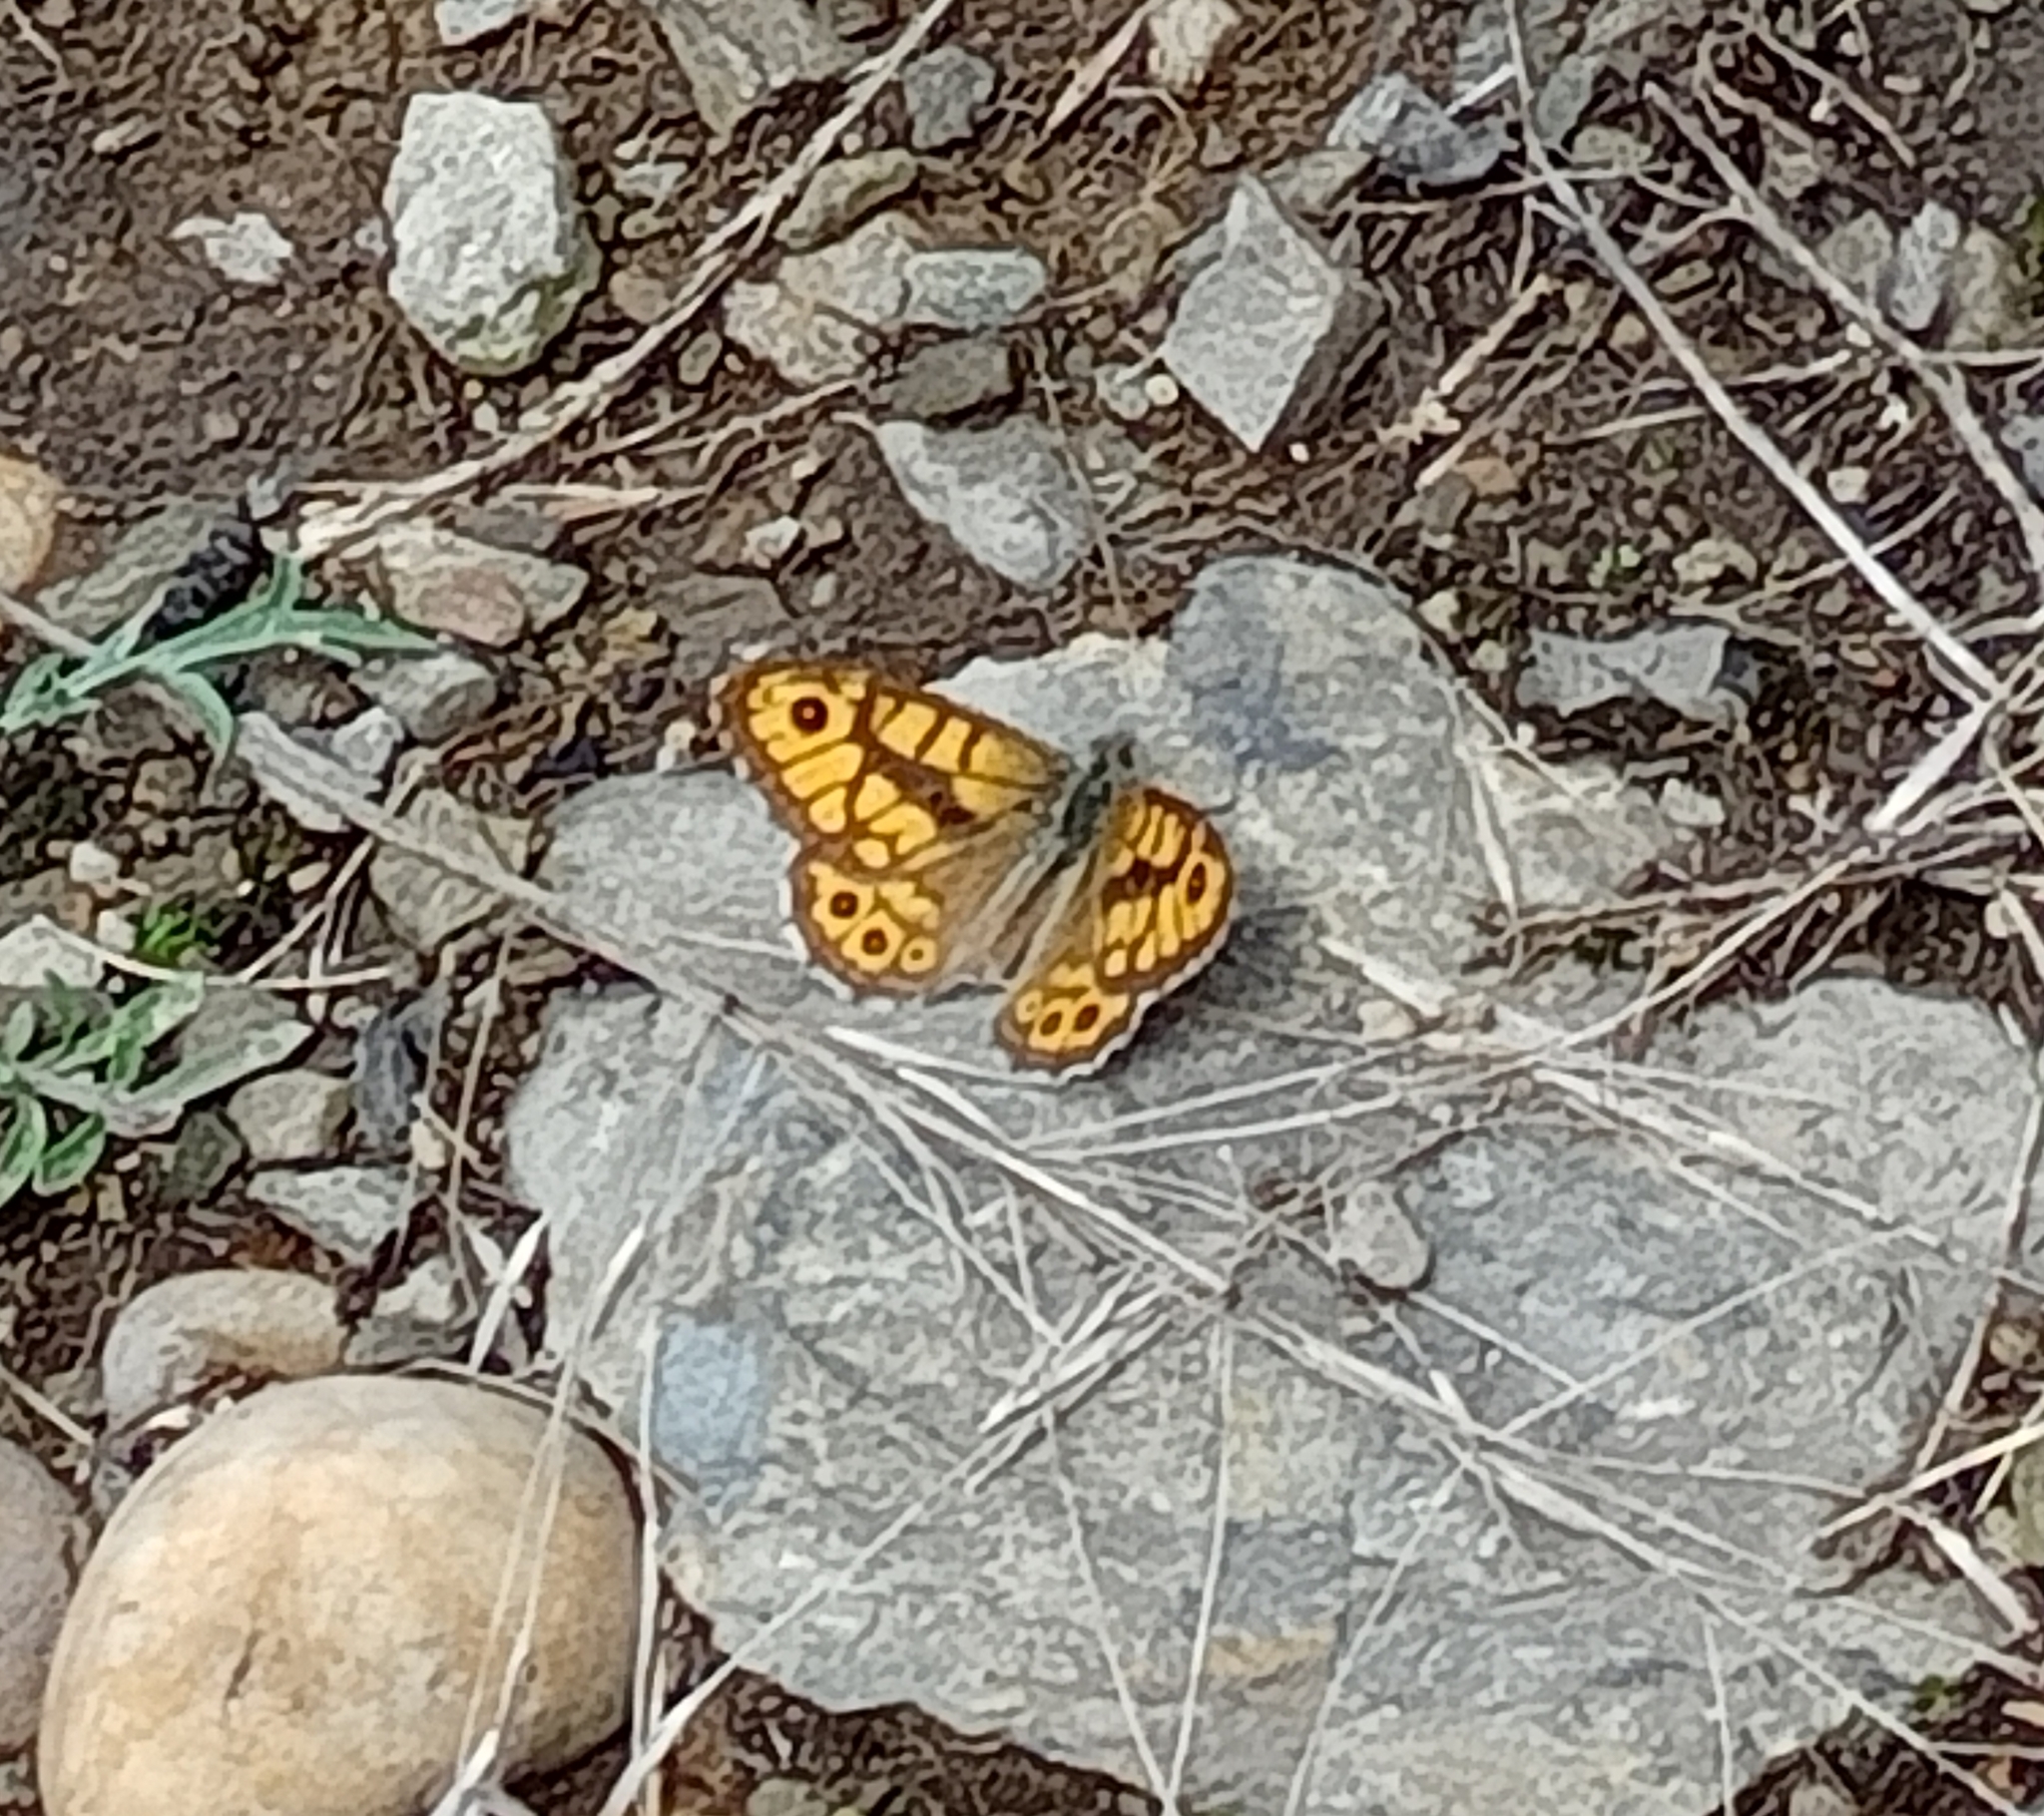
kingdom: Animalia
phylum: Arthropoda
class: Insecta
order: Lepidoptera
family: Nymphalidae
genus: Pararge
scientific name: Pararge Lasiommata megera
